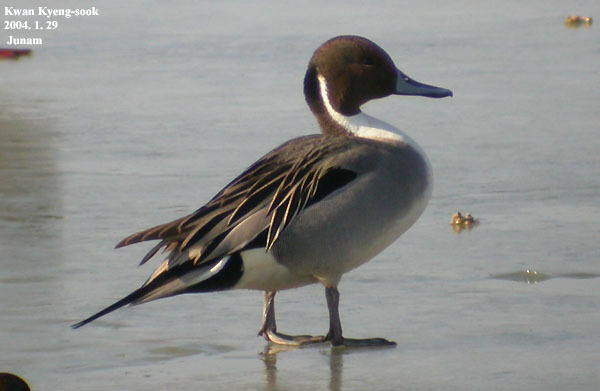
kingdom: Animalia
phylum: Chordata
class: Aves
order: Anseriformes
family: Anatidae
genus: Anas
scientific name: Anas acuta
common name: Northern pintail
